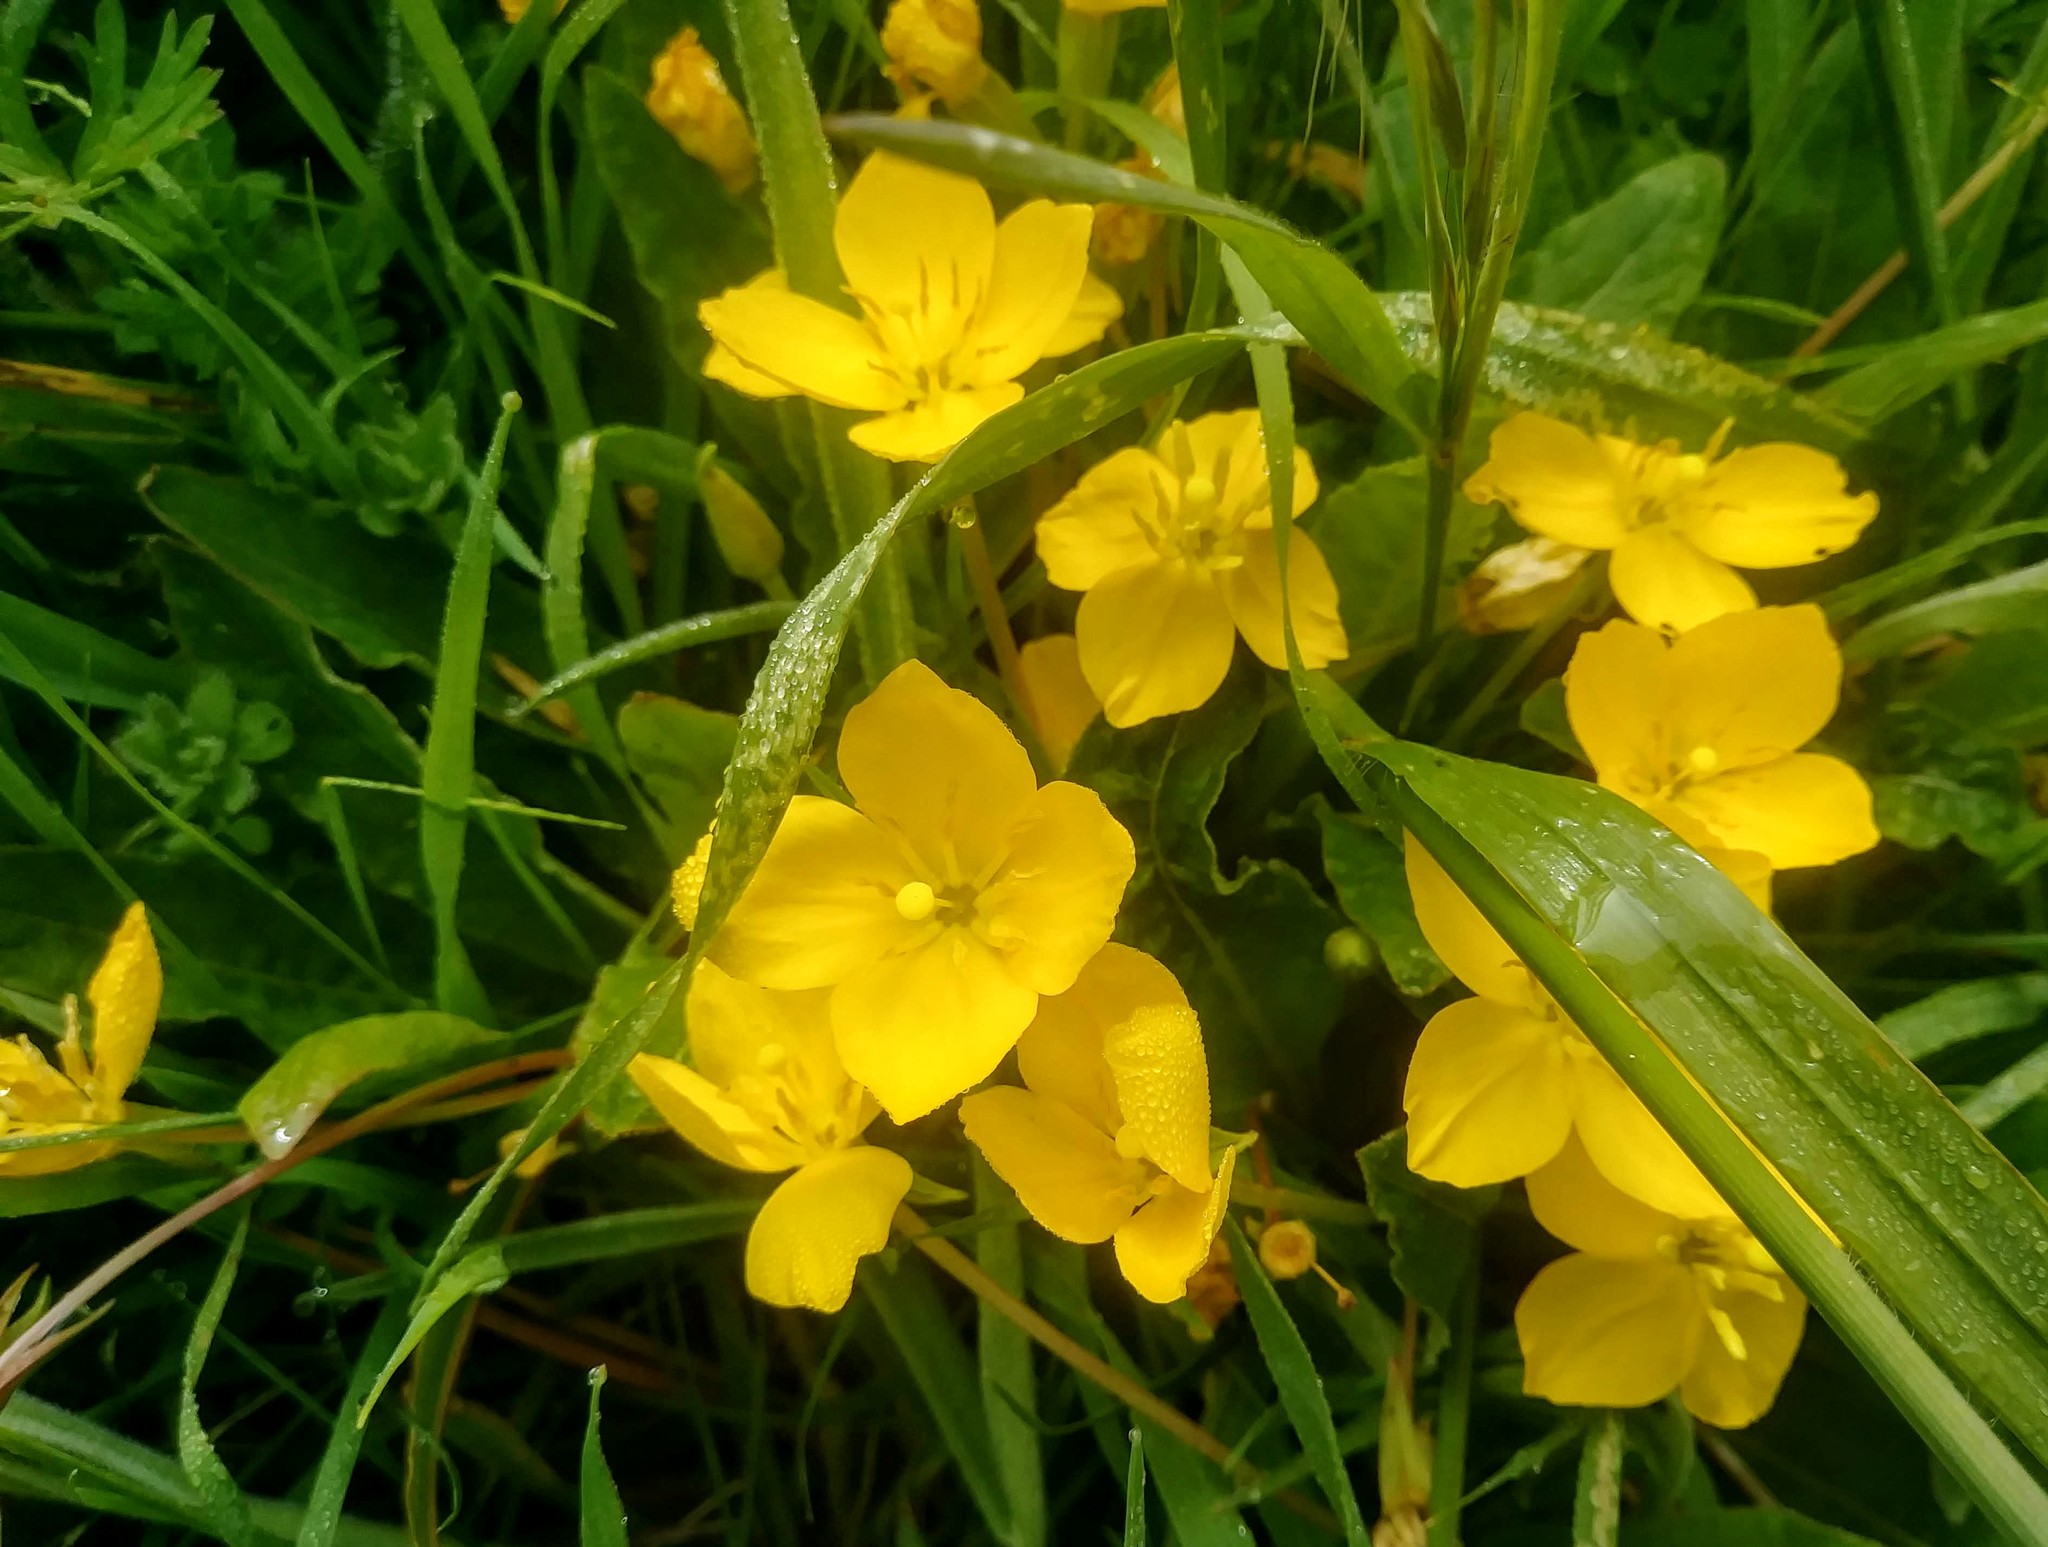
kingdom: Plantae
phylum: Tracheophyta
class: Magnoliopsida
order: Myrtales
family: Onagraceae
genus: Taraxia
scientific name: Taraxia ovata
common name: Goldeneggs
